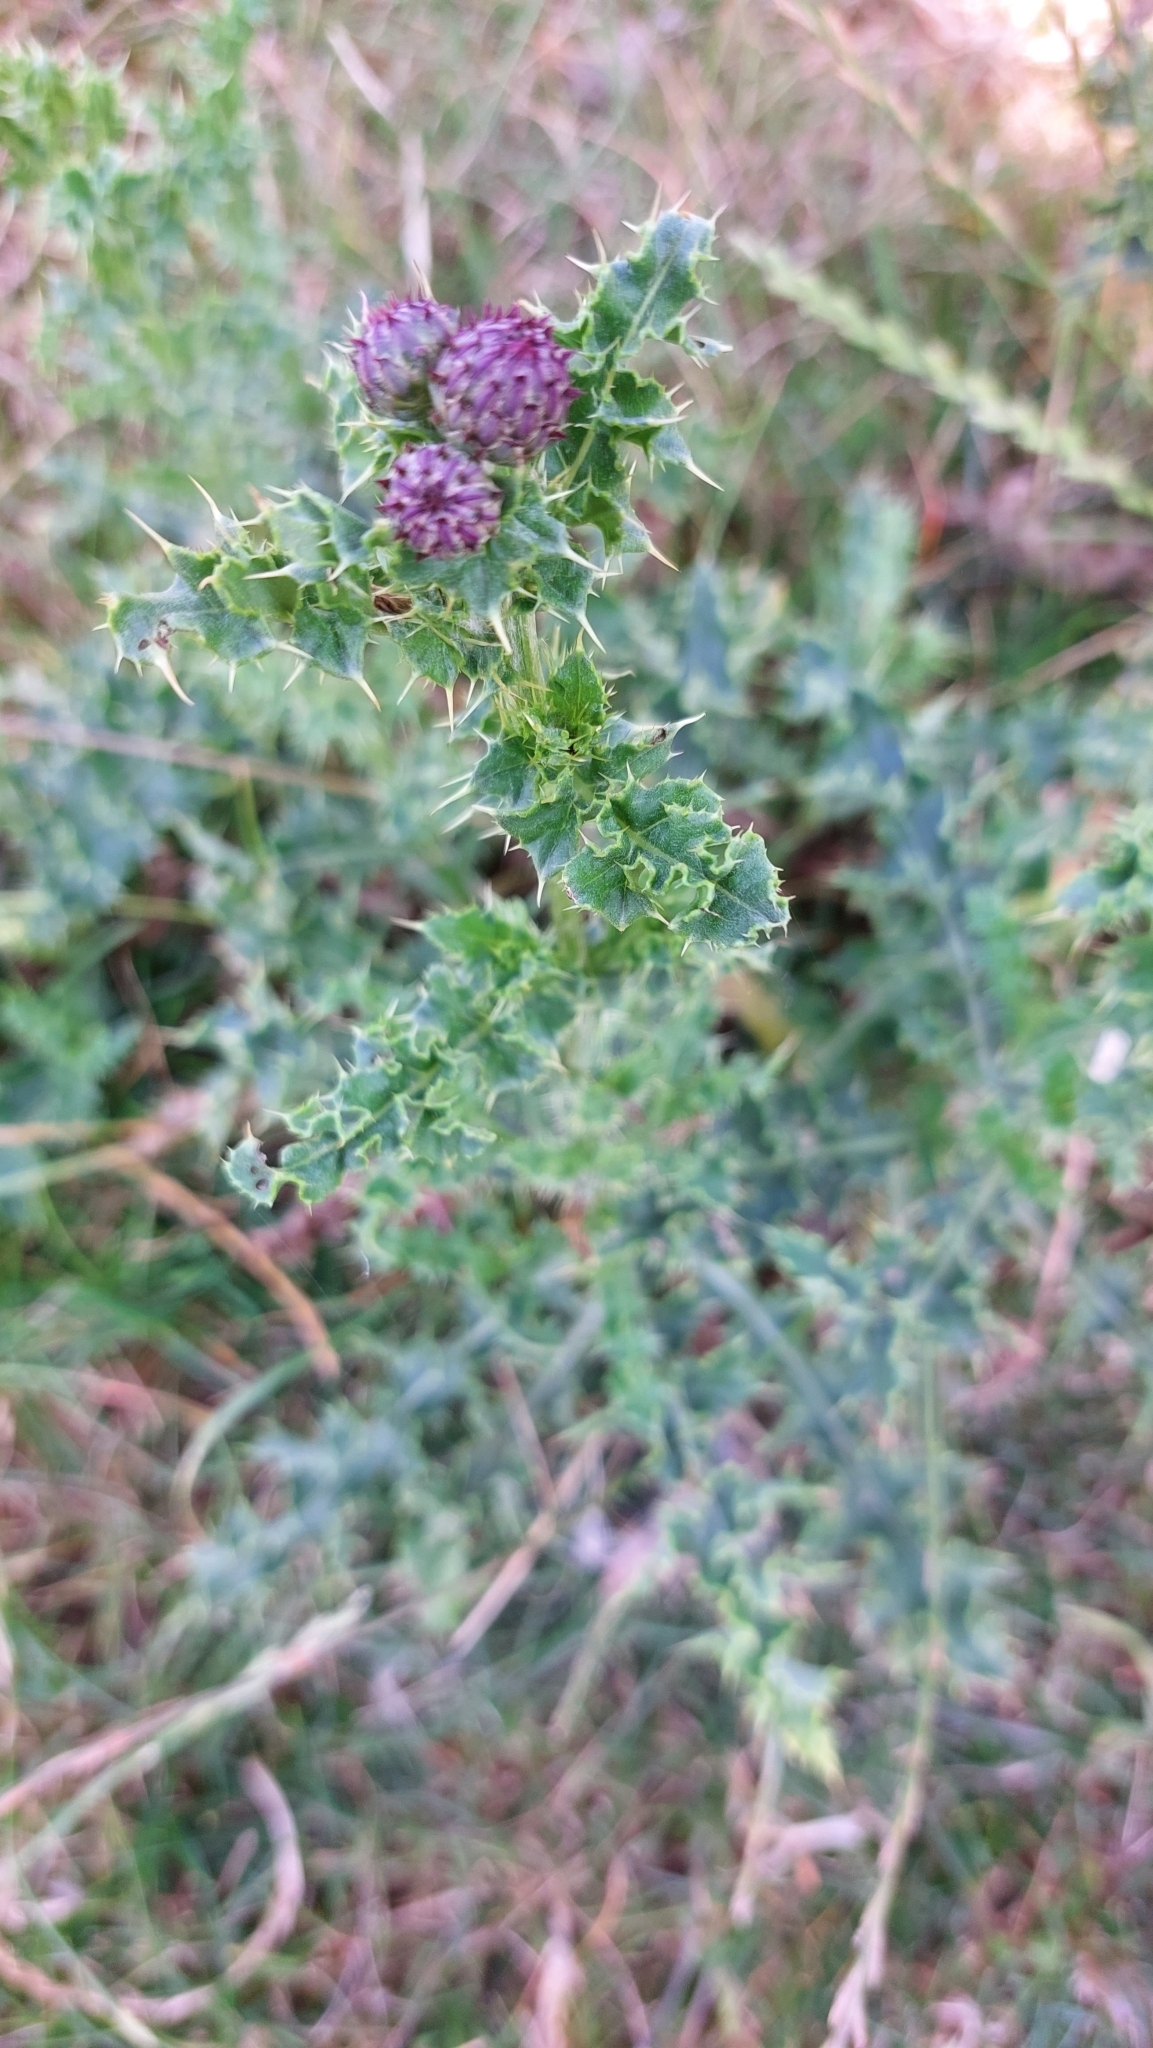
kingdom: Plantae
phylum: Tracheophyta
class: Magnoliopsida
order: Asterales
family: Asteraceae
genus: Cirsium
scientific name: Cirsium arvense
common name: Creeping thistle
